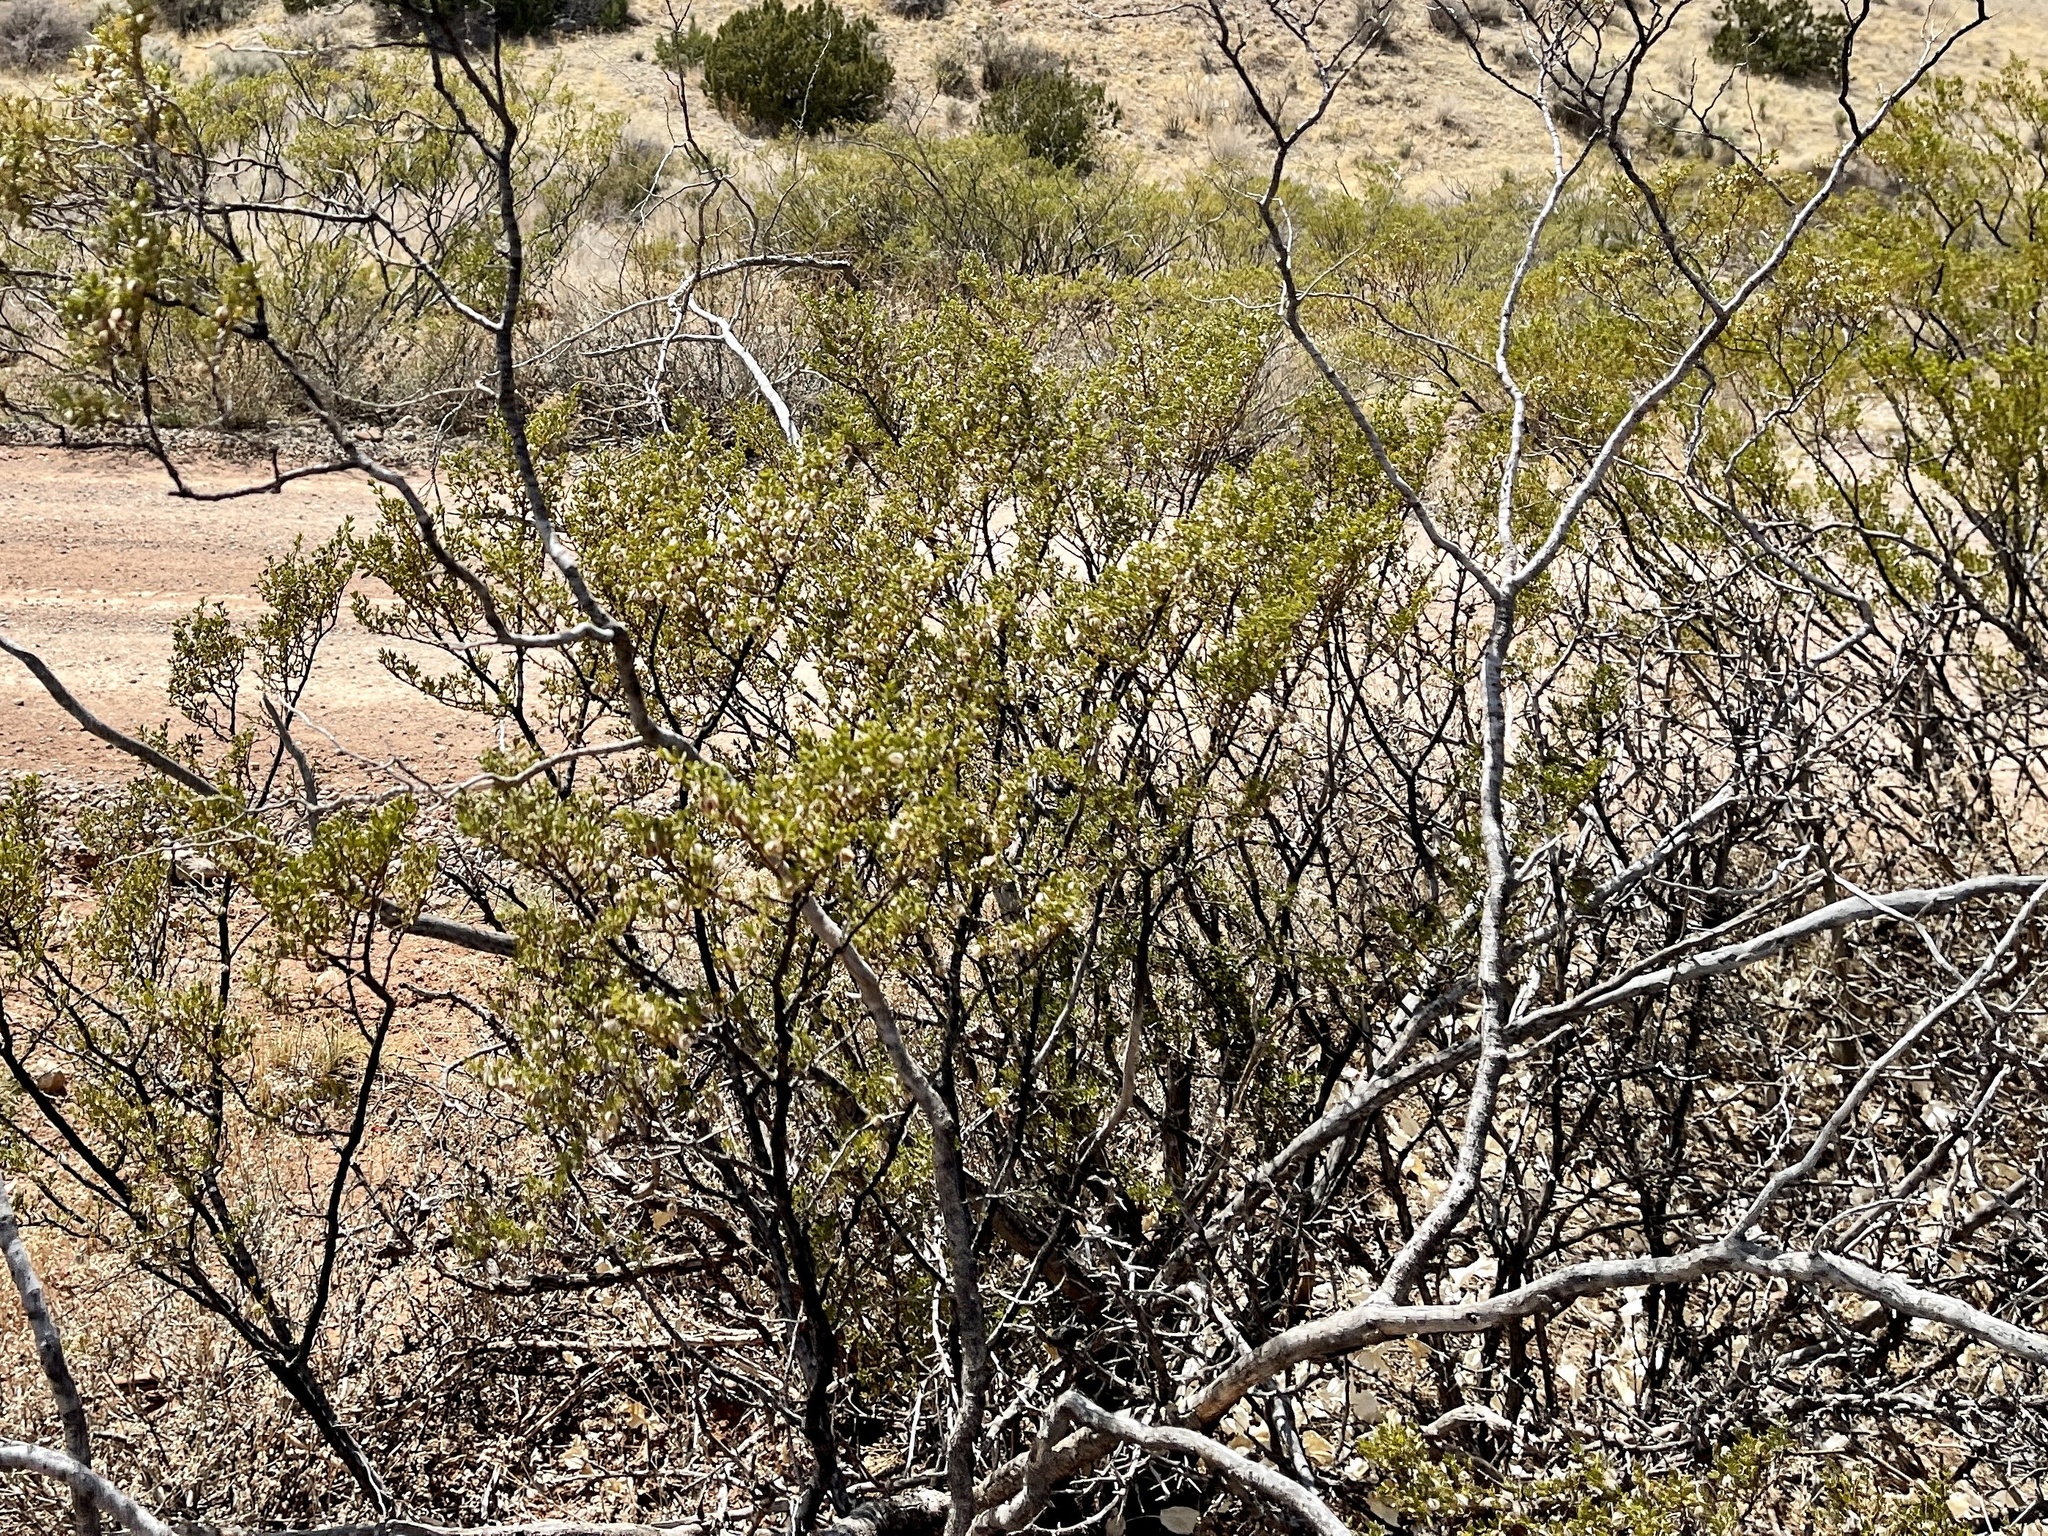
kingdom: Plantae
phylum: Tracheophyta
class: Magnoliopsida
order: Zygophyllales
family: Zygophyllaceae
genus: Larrea
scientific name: Larrea tridentata
